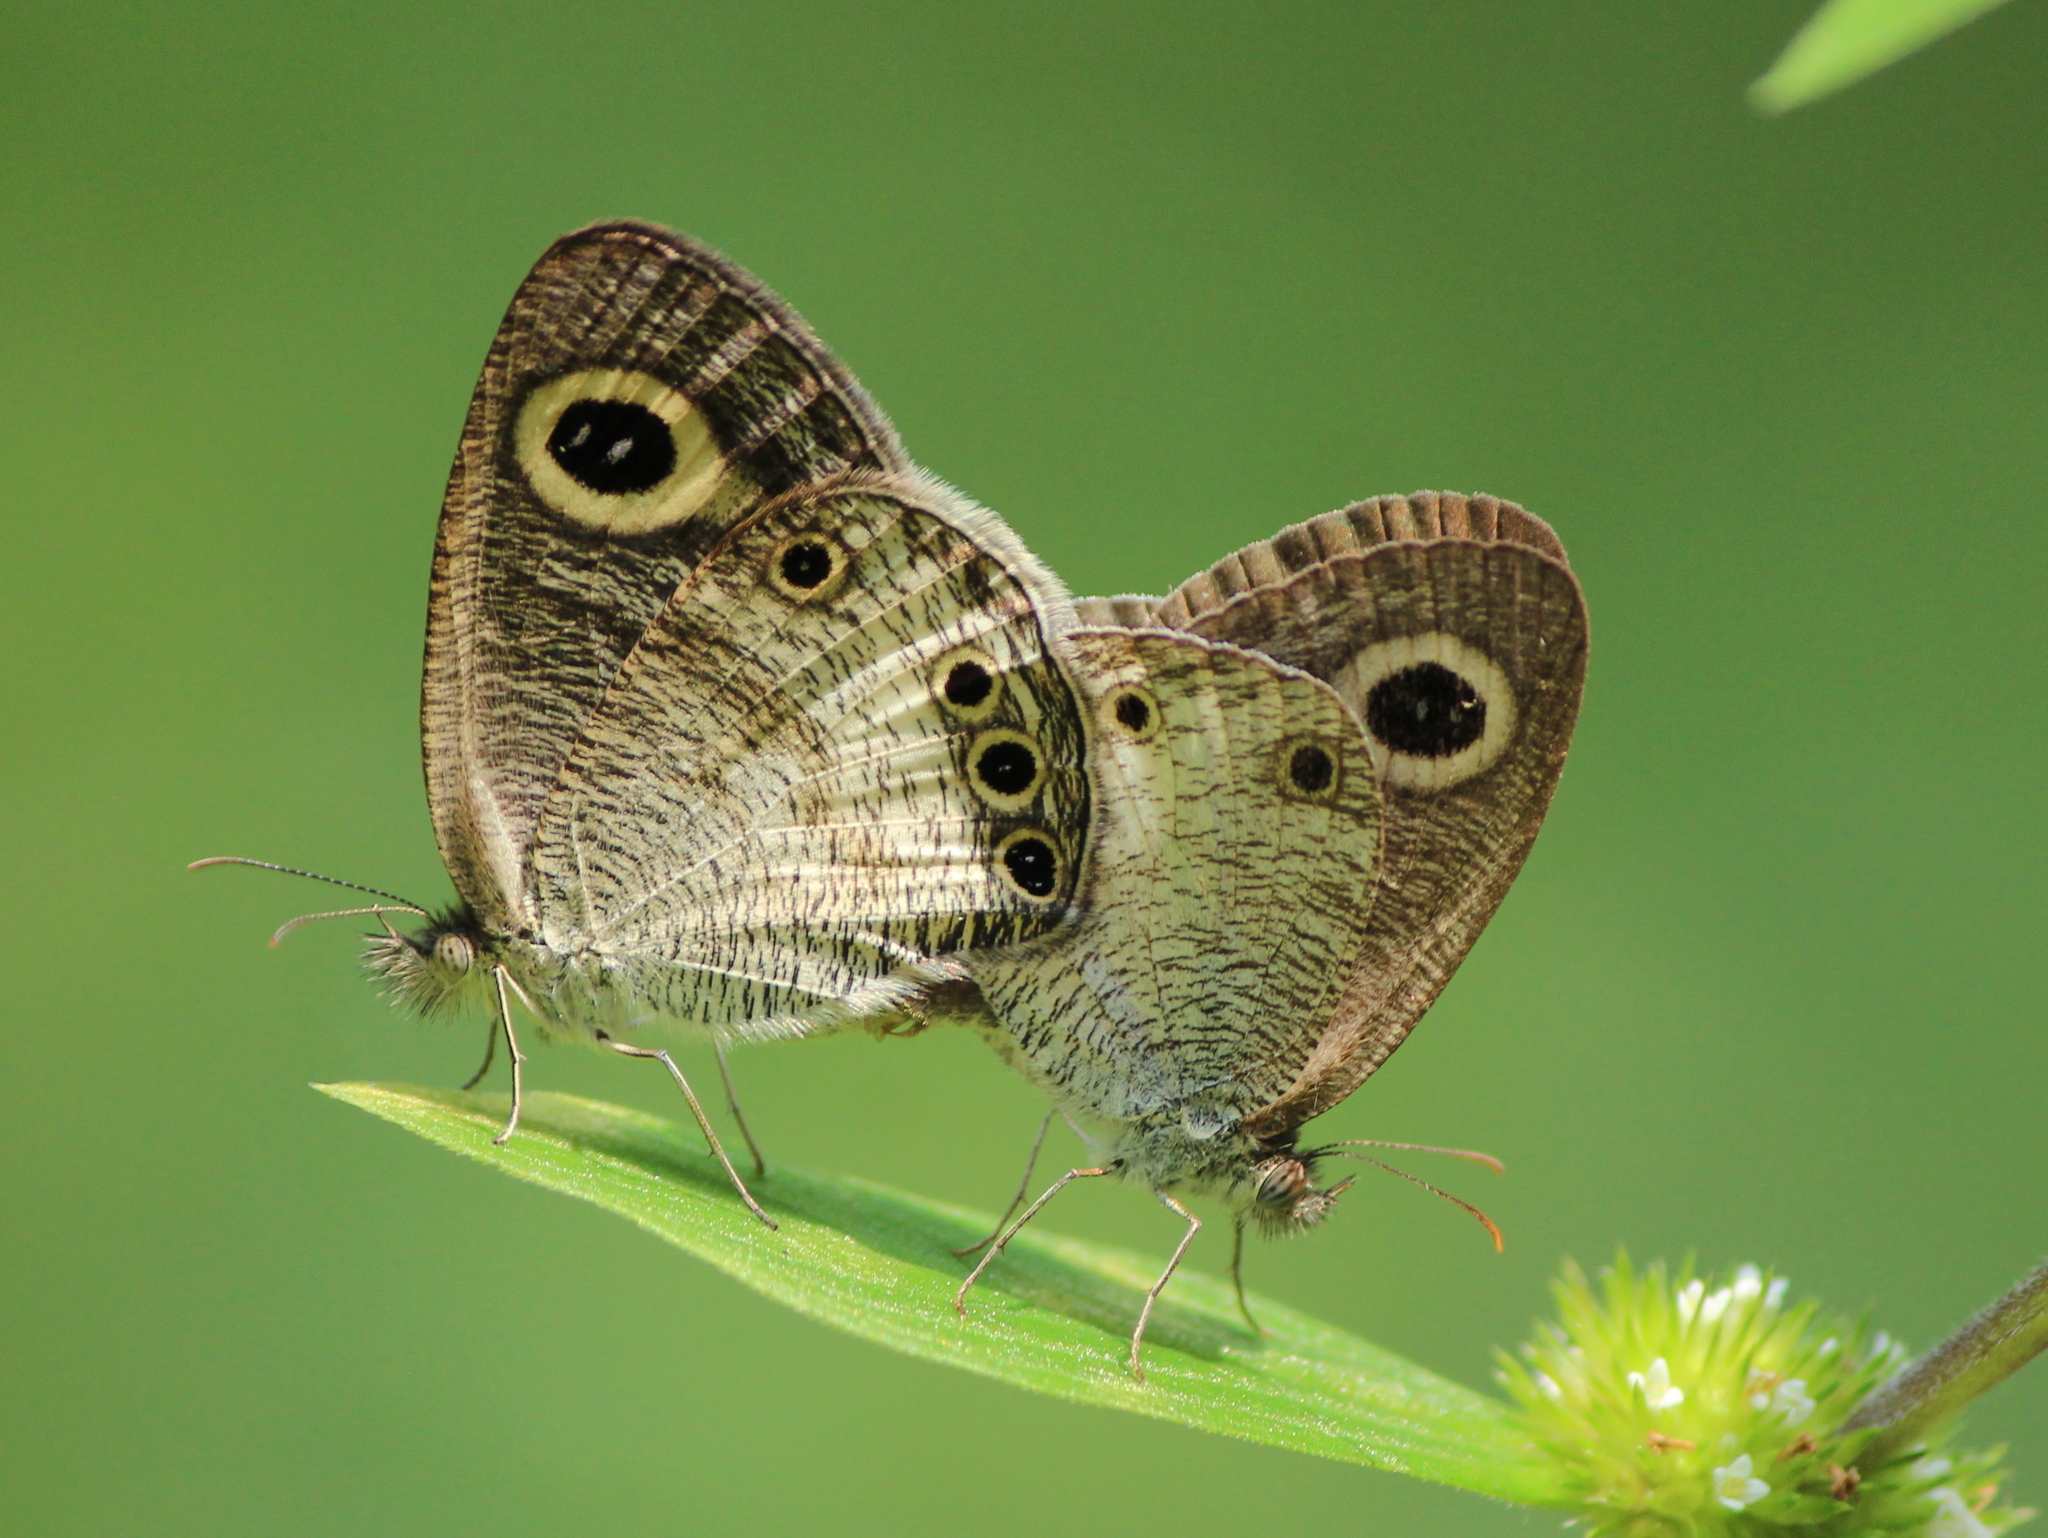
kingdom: Animalia
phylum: Arthropoda
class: Insecta
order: Lepidoptera
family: Nymphalidae
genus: Ypthima
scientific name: Ypthima ceylonica
